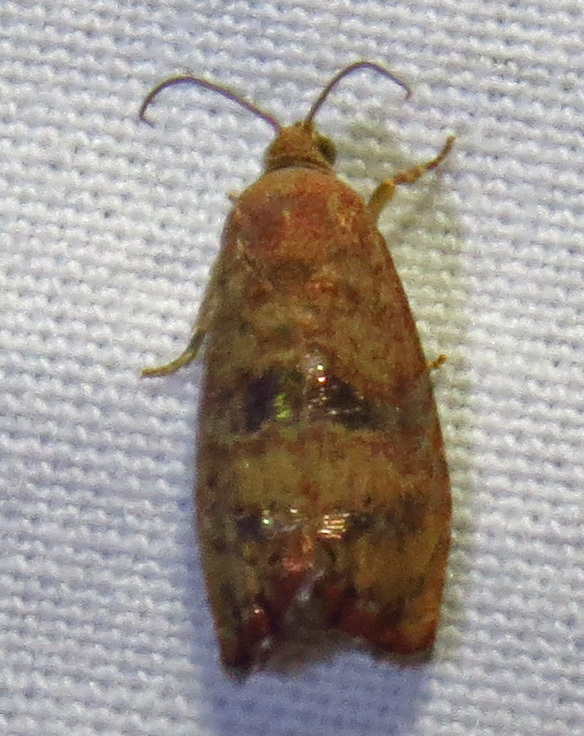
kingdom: Animalia
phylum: Arthropoda
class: Insecta
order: Lepidoptera
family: Tortricidae
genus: Cydia
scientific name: Cydia latiferreana
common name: Filbertworm moth
